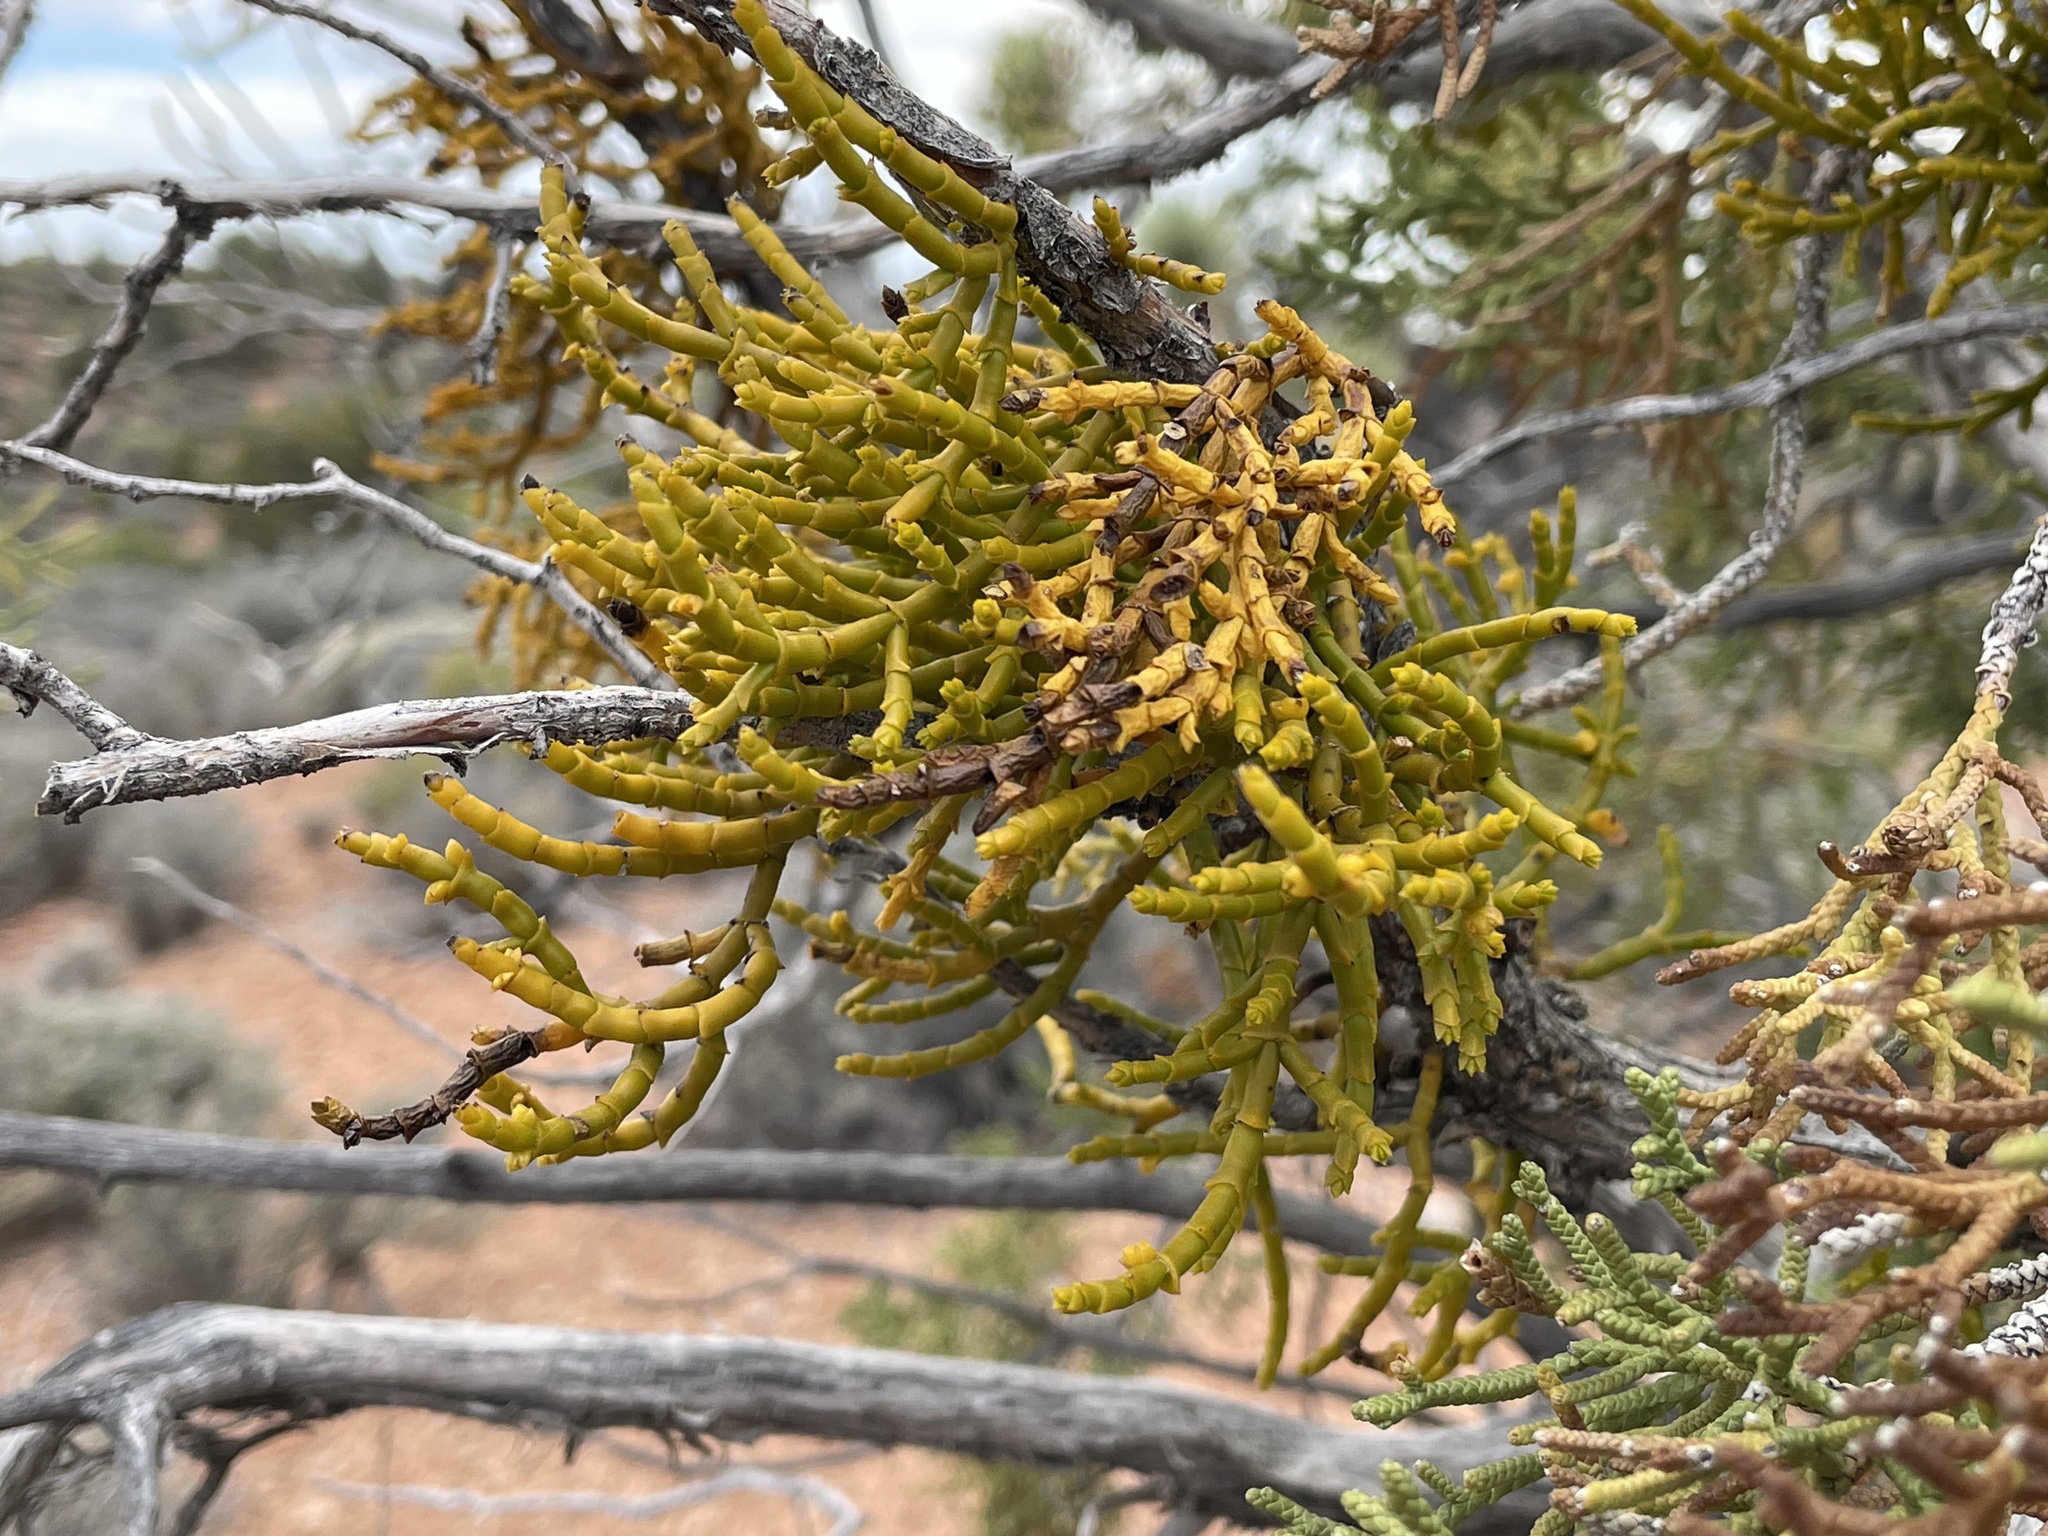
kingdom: Plantae
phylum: Tracheophyta
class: Magnoliopsida
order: Santalales
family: Viscaceae
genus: Phoradendron
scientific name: Phoradendron juniperinum
